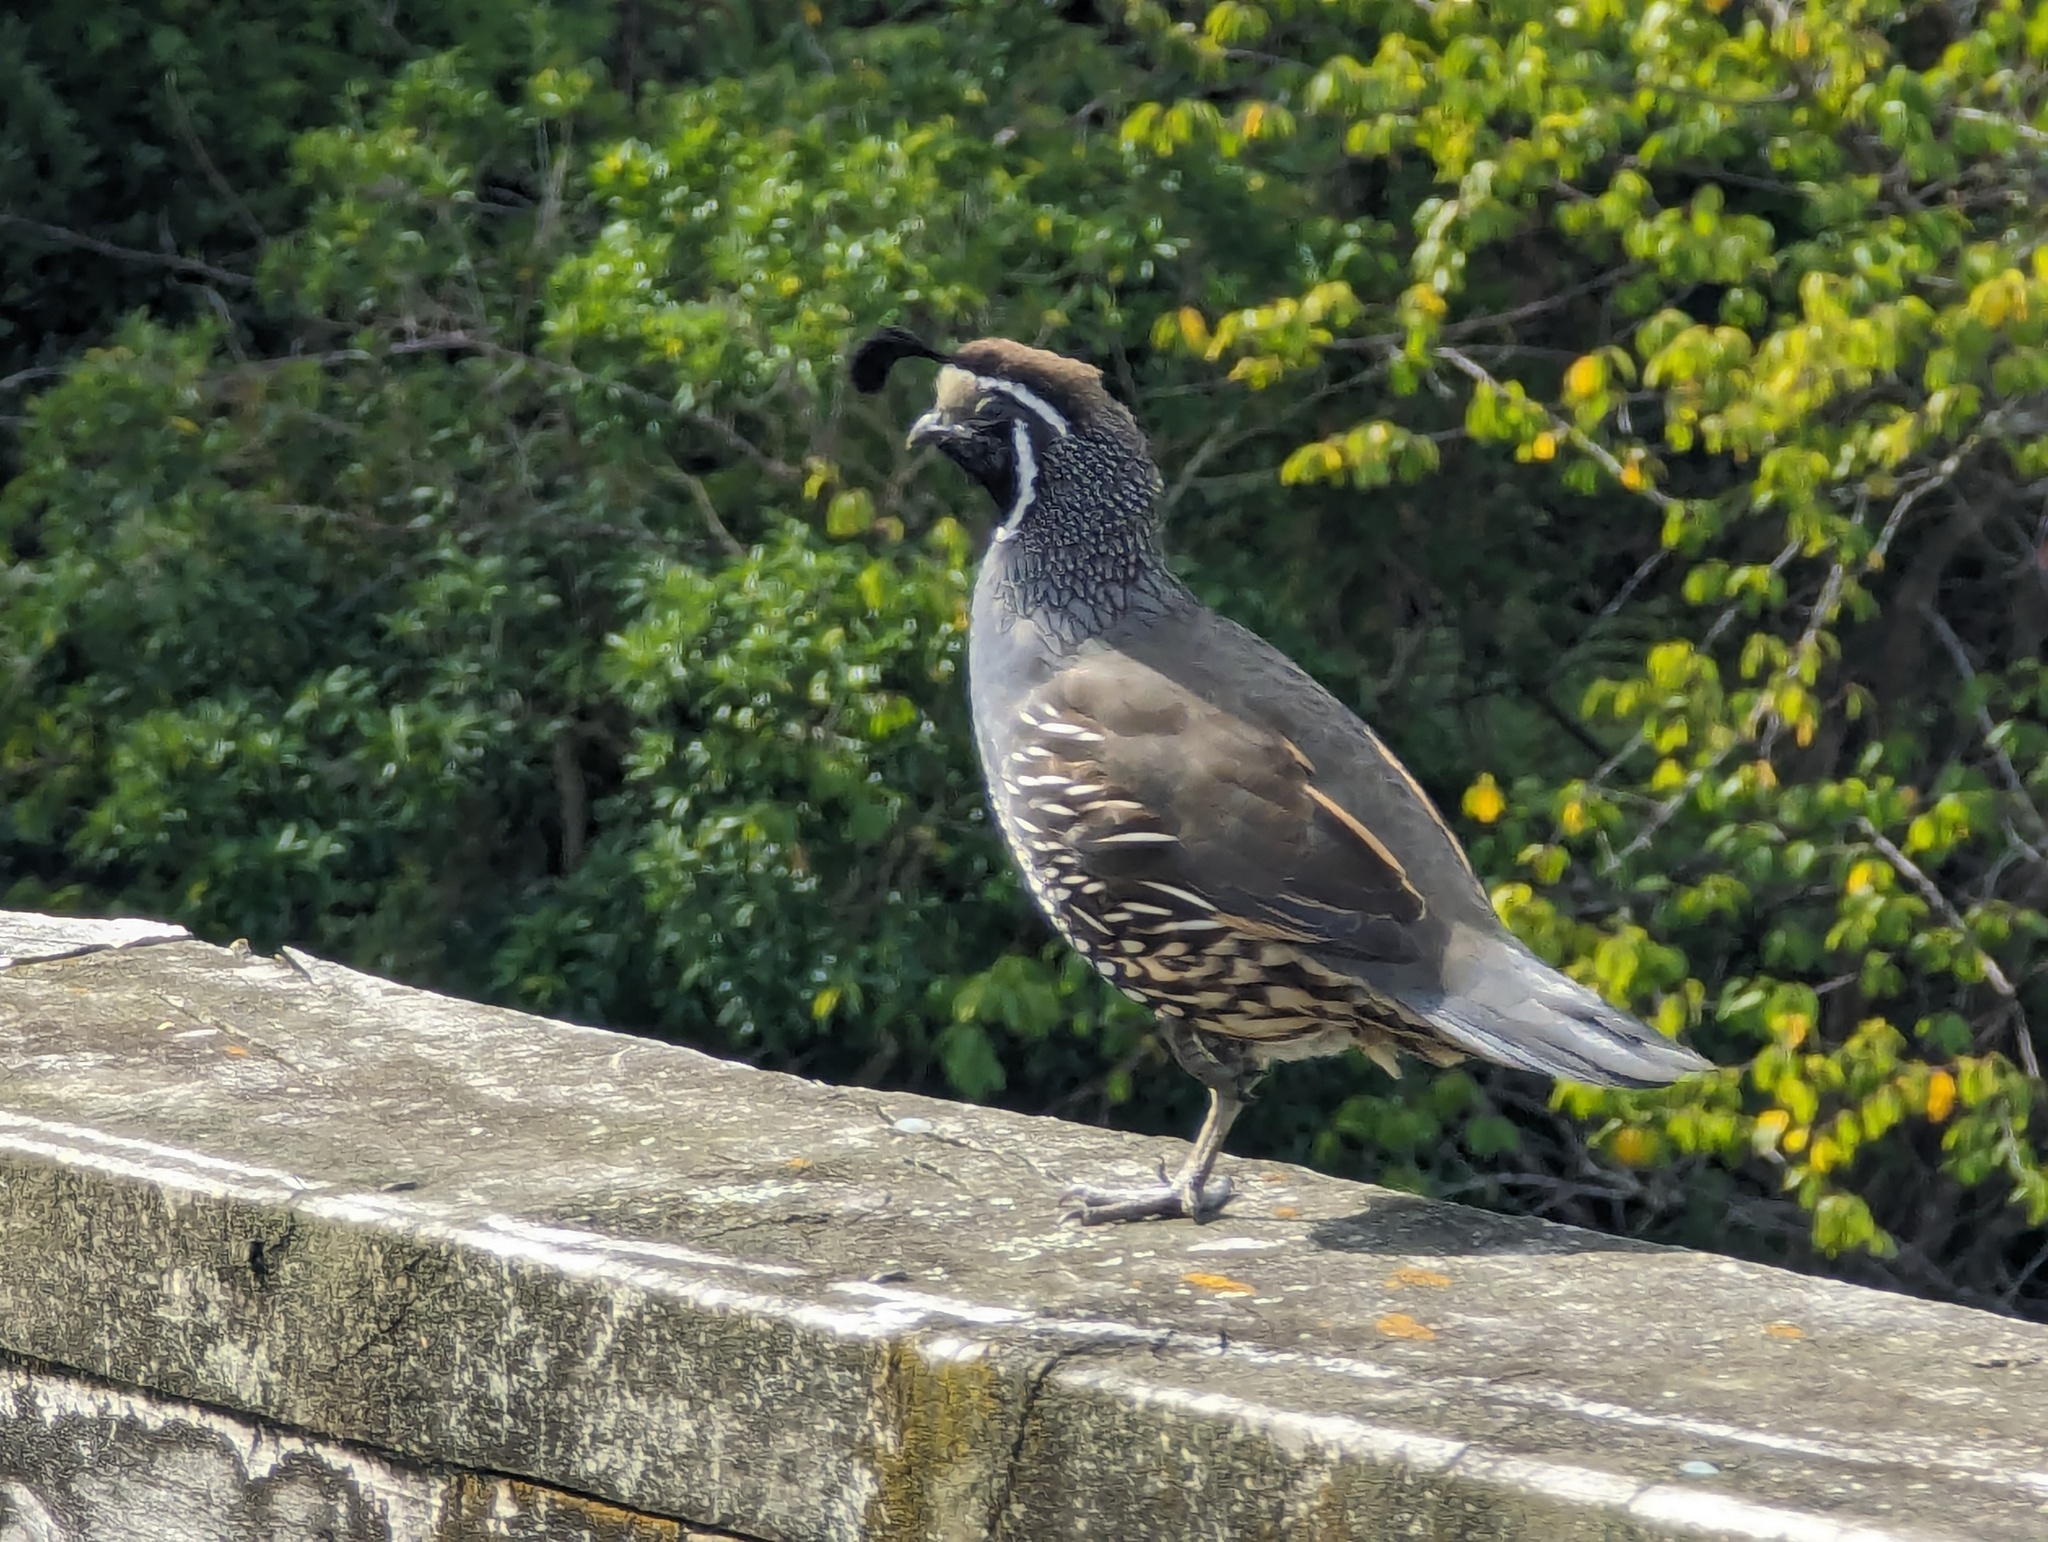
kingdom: Animalia
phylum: Chordata
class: Aves
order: Galliformes
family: Odontophoridae
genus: Callipepla
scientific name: Callipepla californica
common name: California quail
